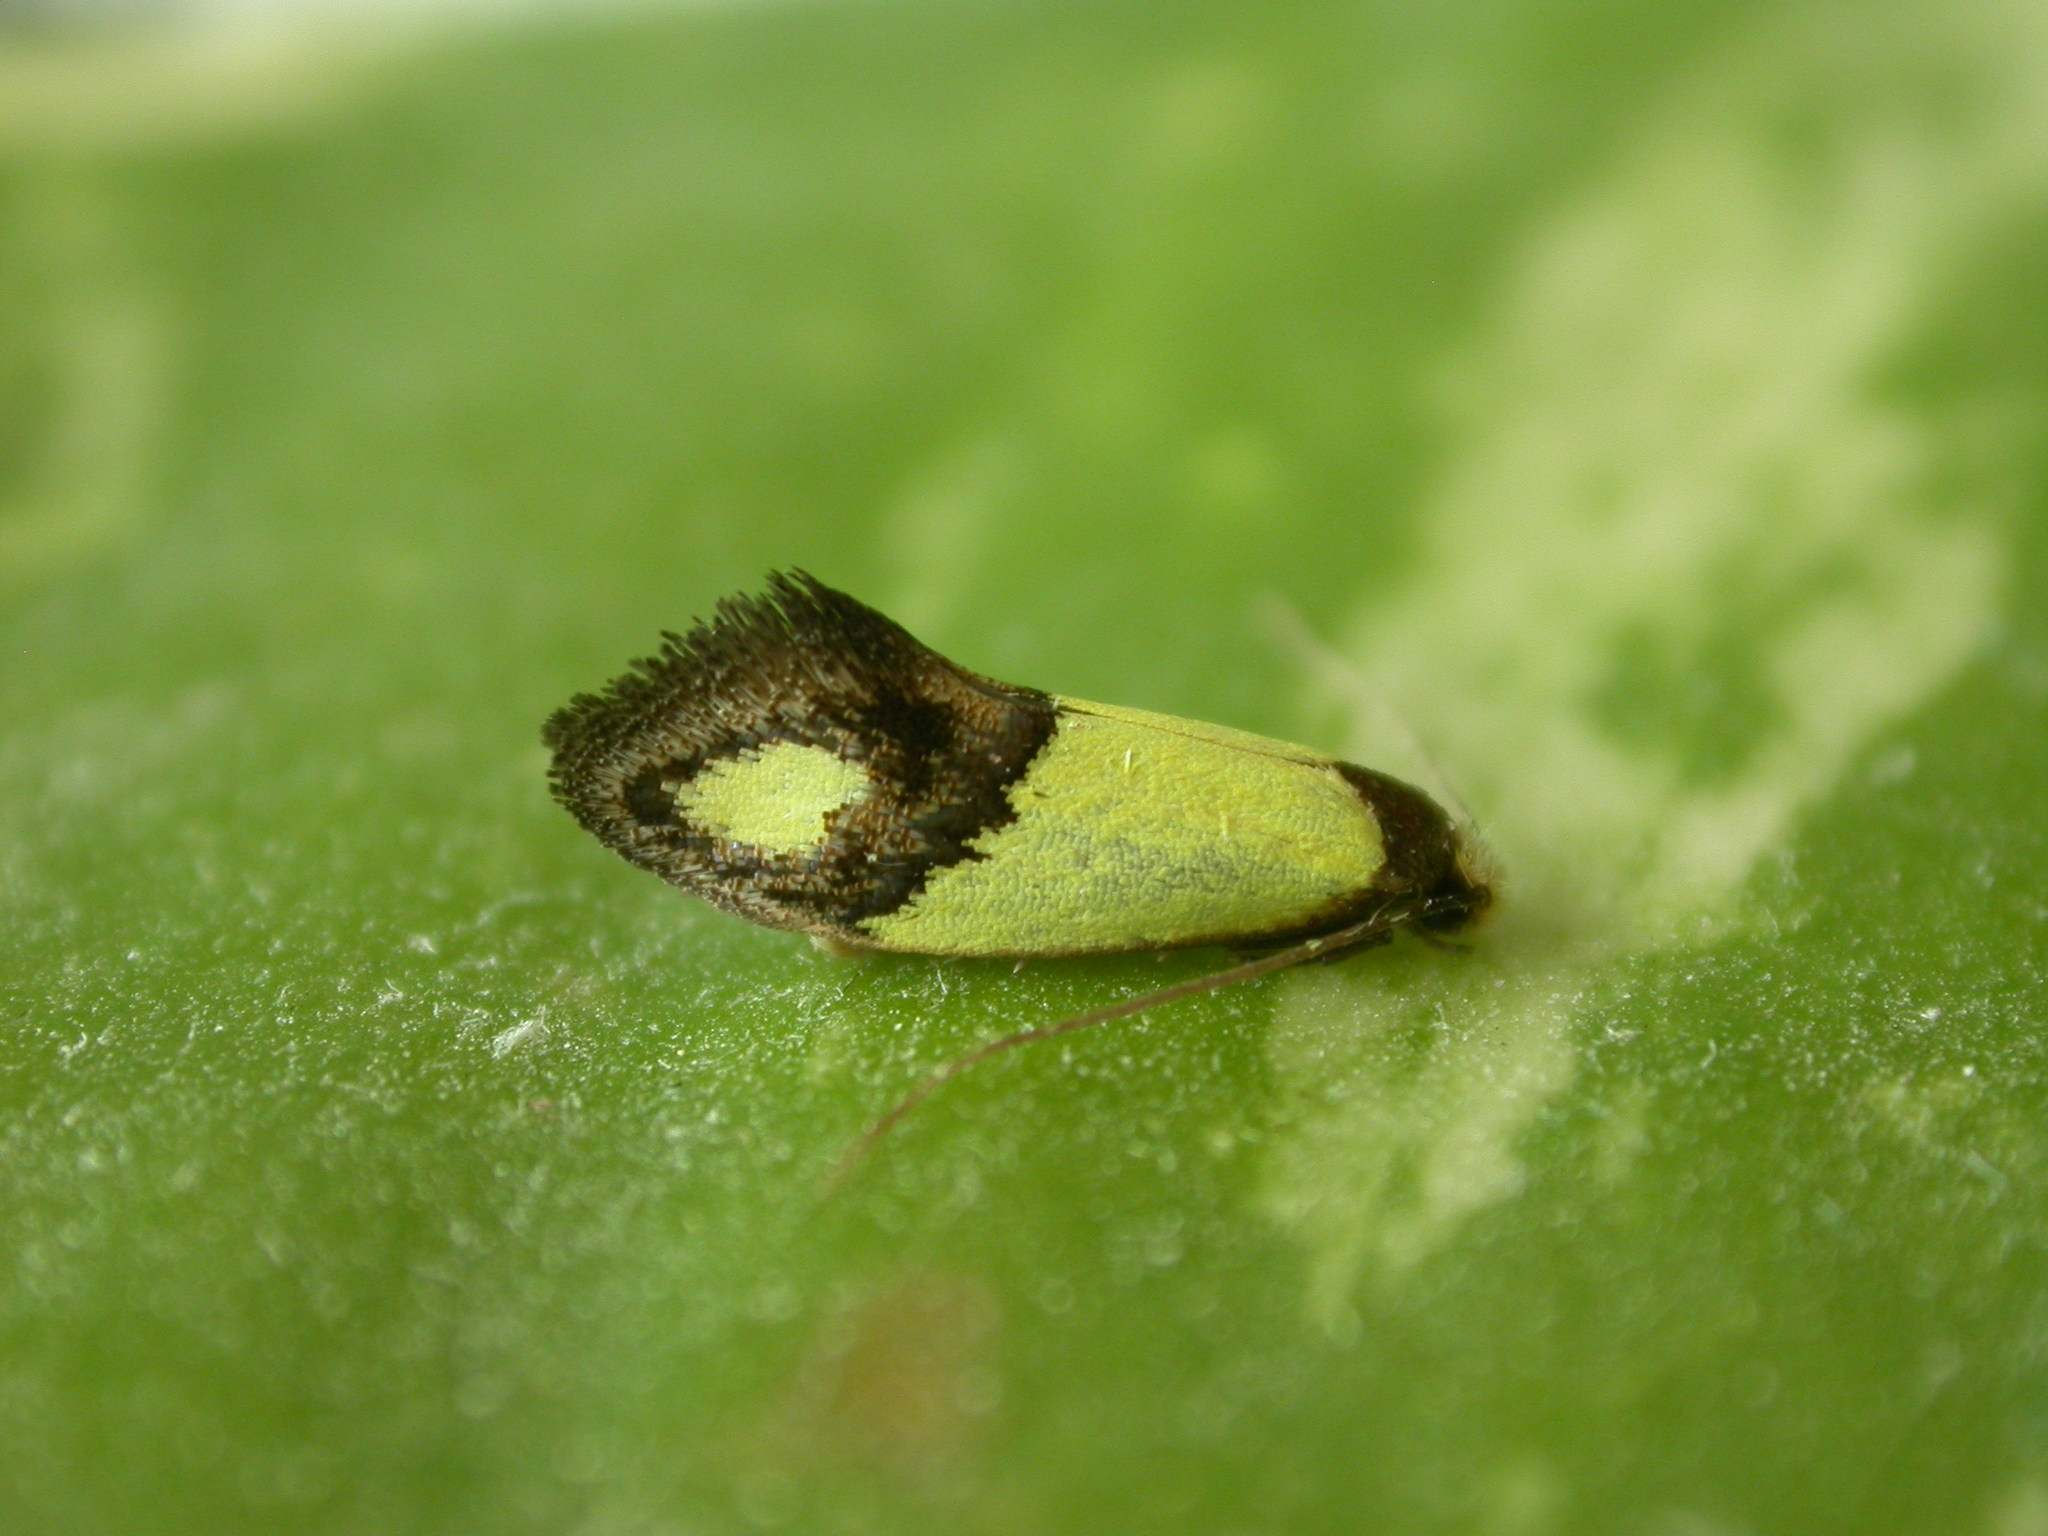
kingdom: Animalia
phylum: Arthropoda
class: Insecta
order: Lepidoptera
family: Tineidae
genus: Edosa
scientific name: Edosa fraudulens
